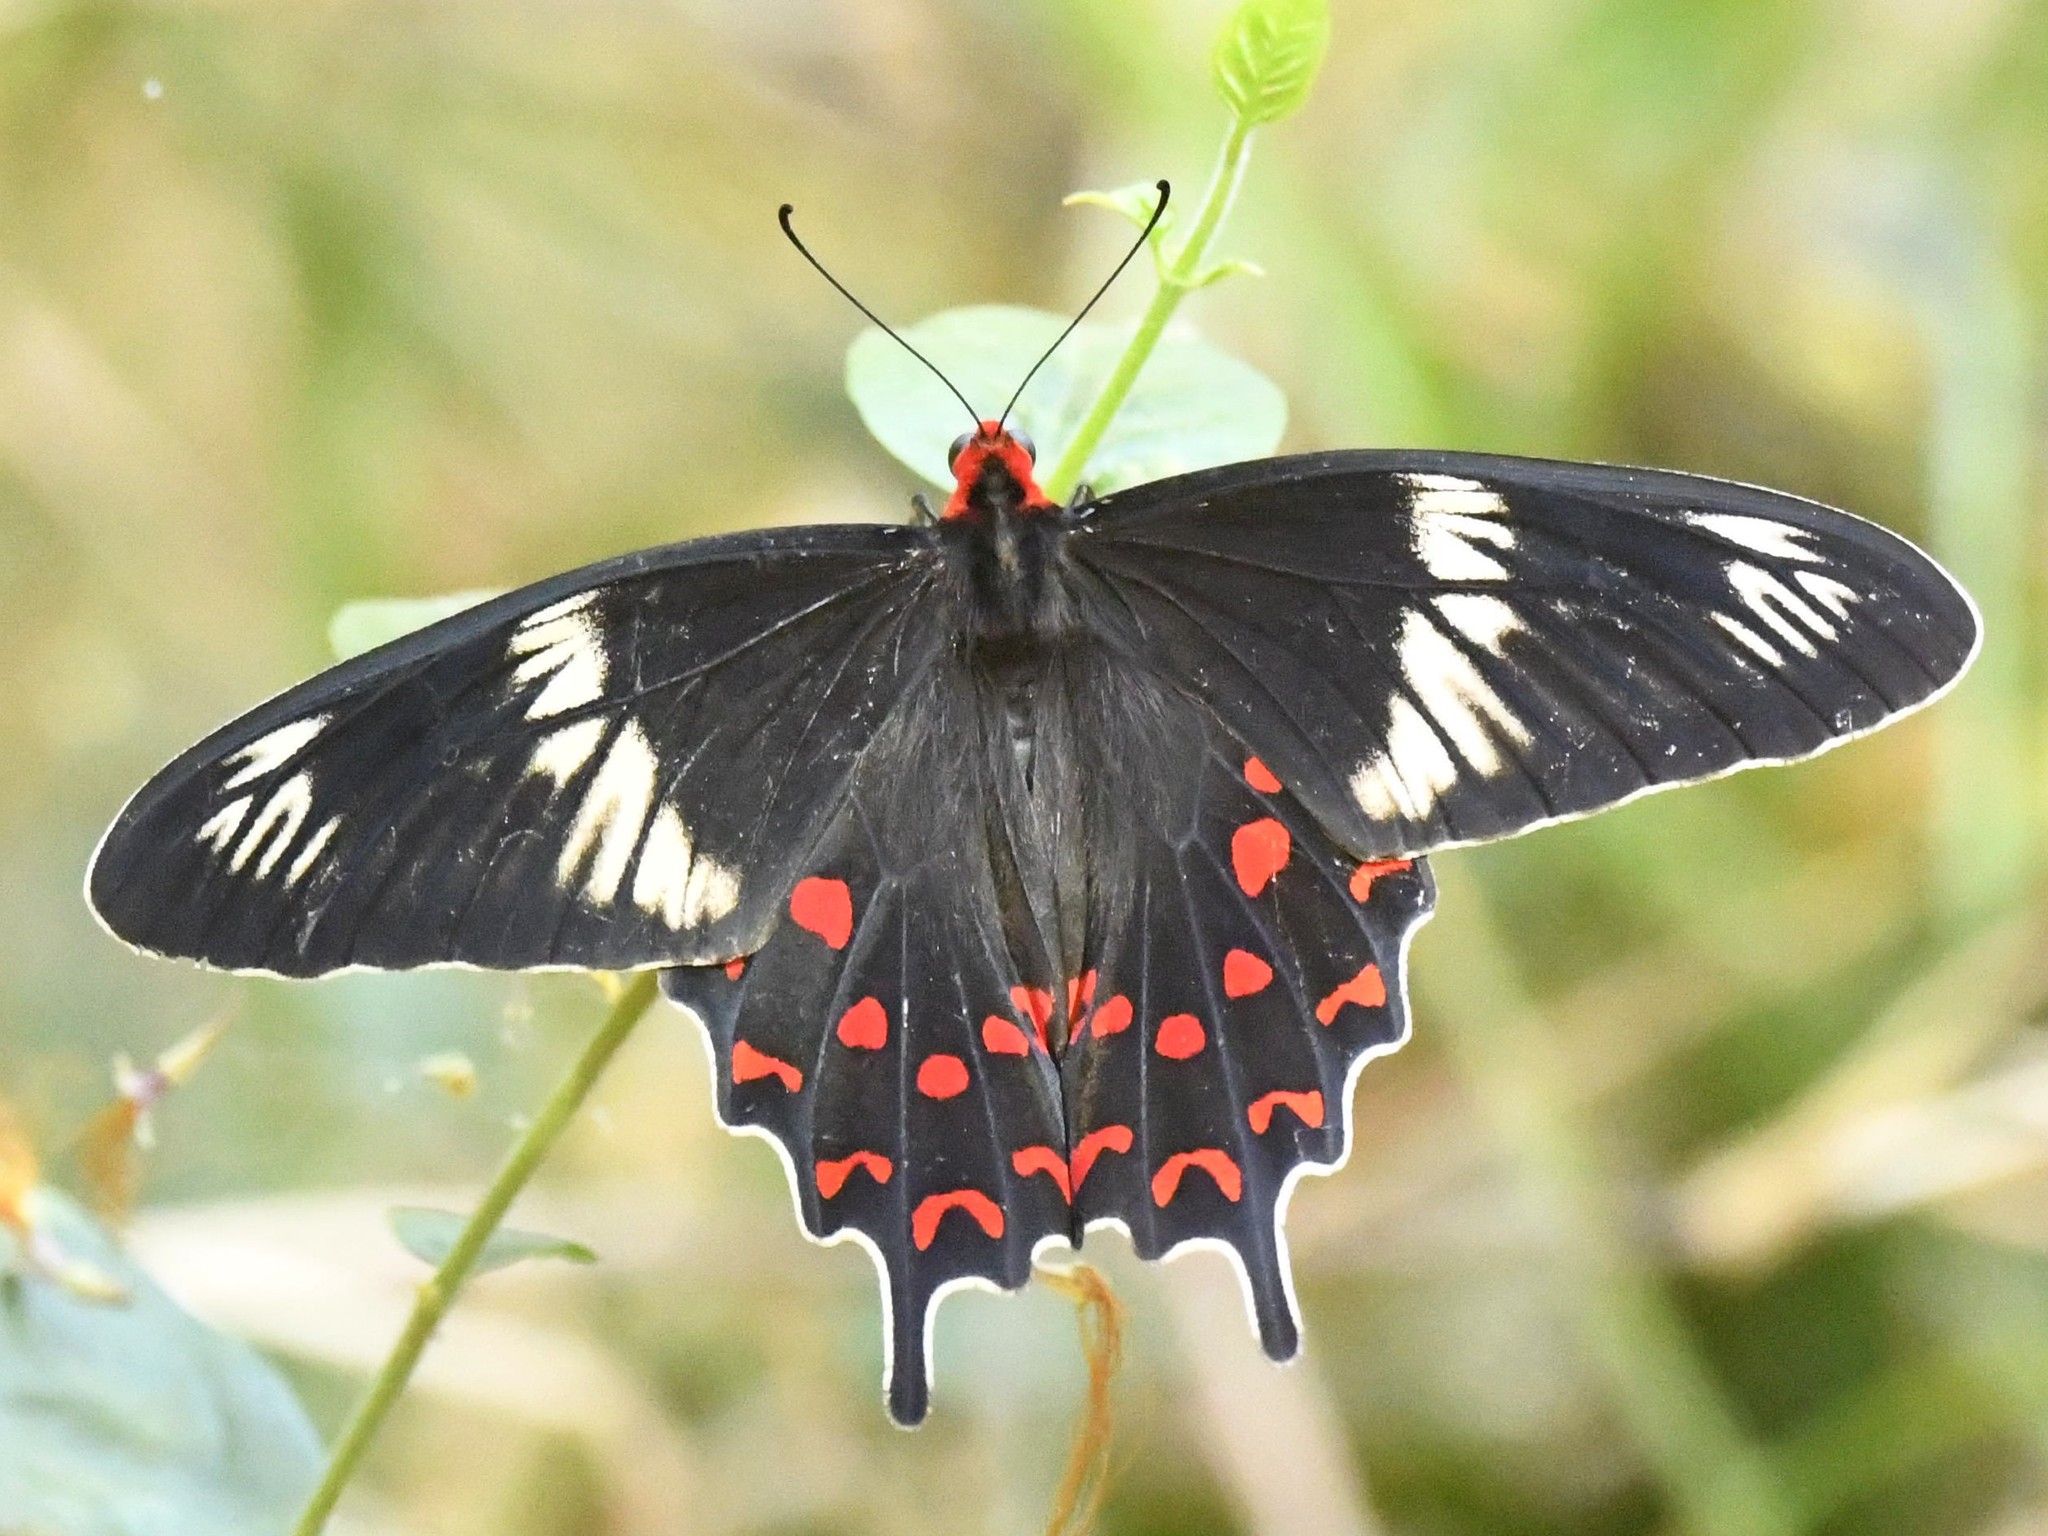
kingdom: Animalia
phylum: Arthropoda
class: Insecta
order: Lepidoptera
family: Papilionidae
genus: Pachliopta
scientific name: Pachliopta hector
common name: Crimson rose
